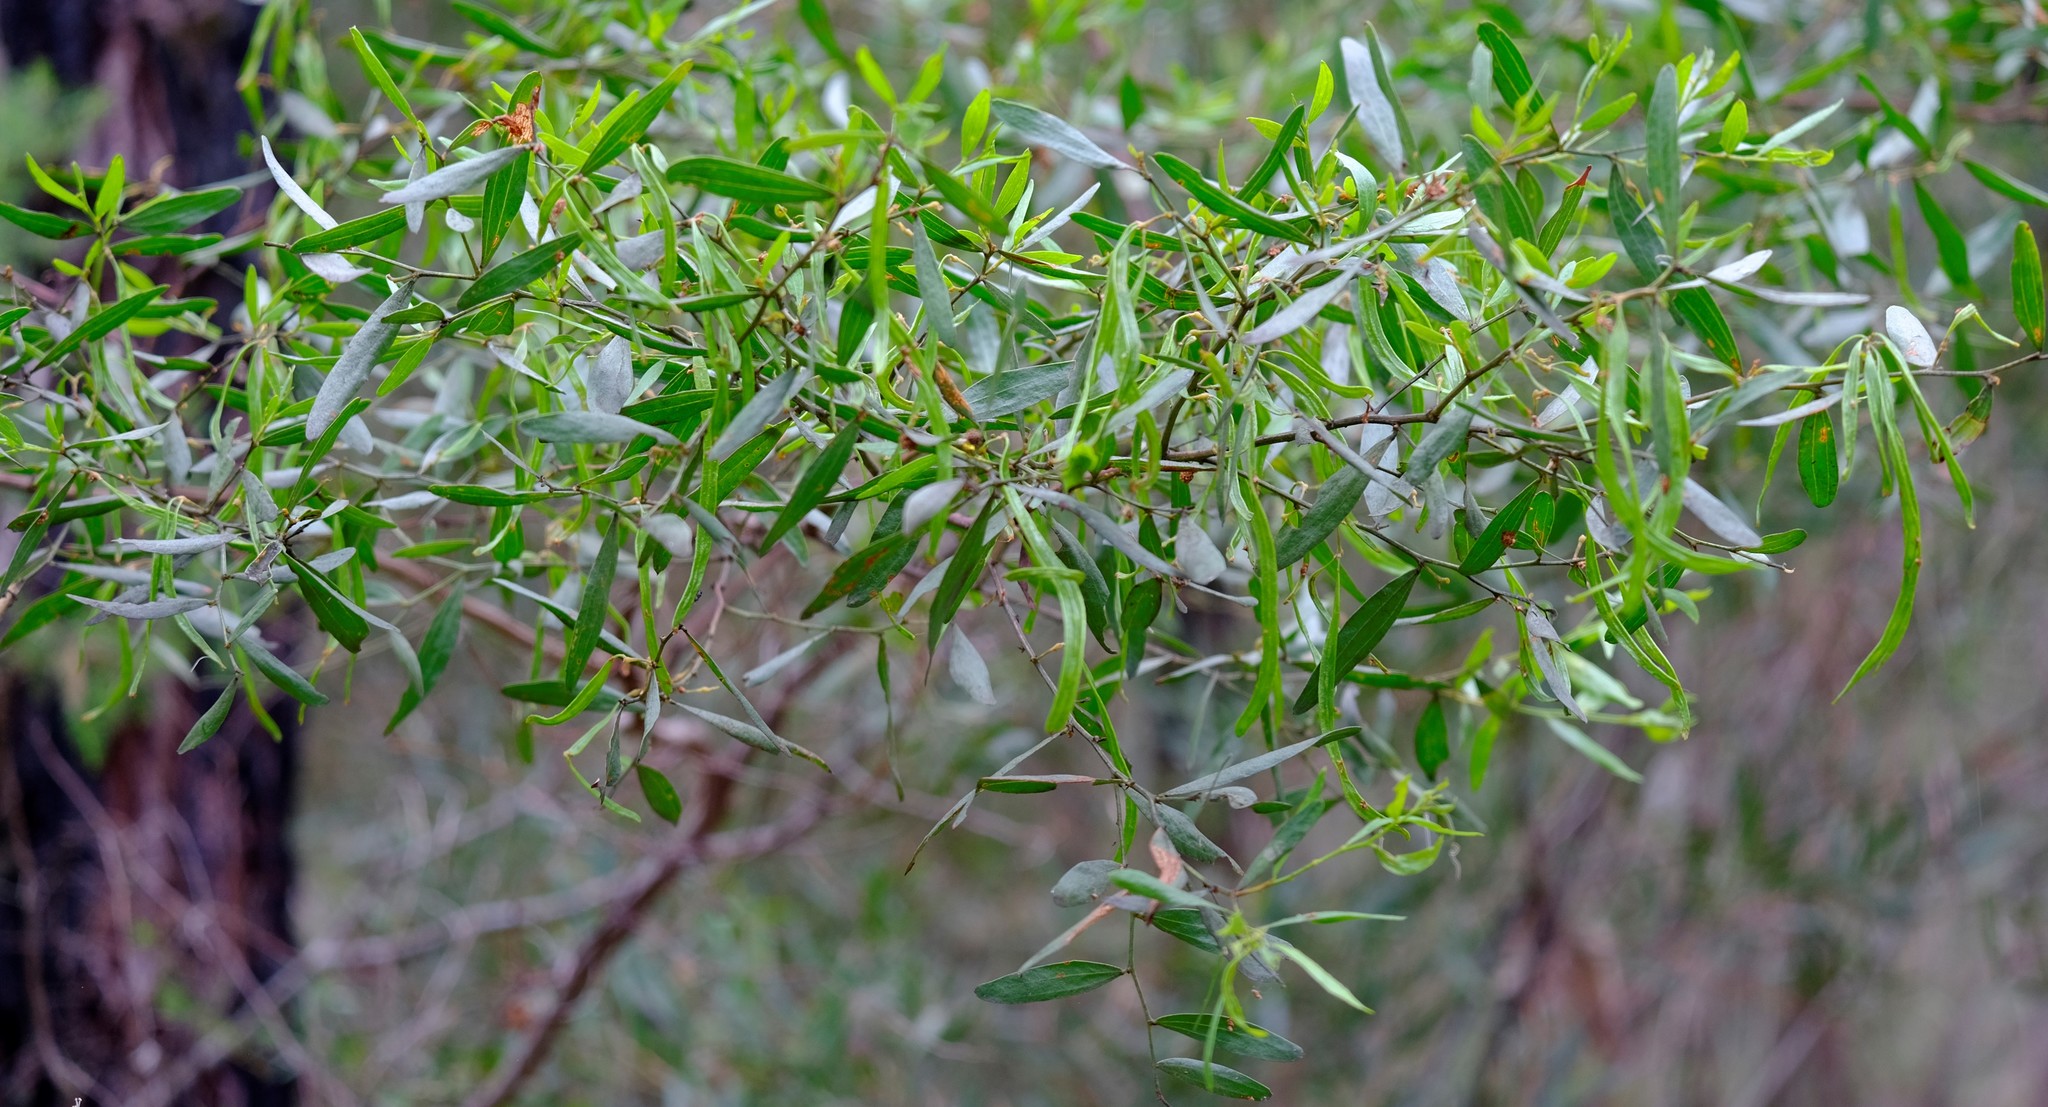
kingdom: Plantae
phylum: Tracheophyta
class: Magnoliopsida
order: Fabales
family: Fabaceae
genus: Acacia
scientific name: Acacia verniciflua
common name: Varnish wattle
